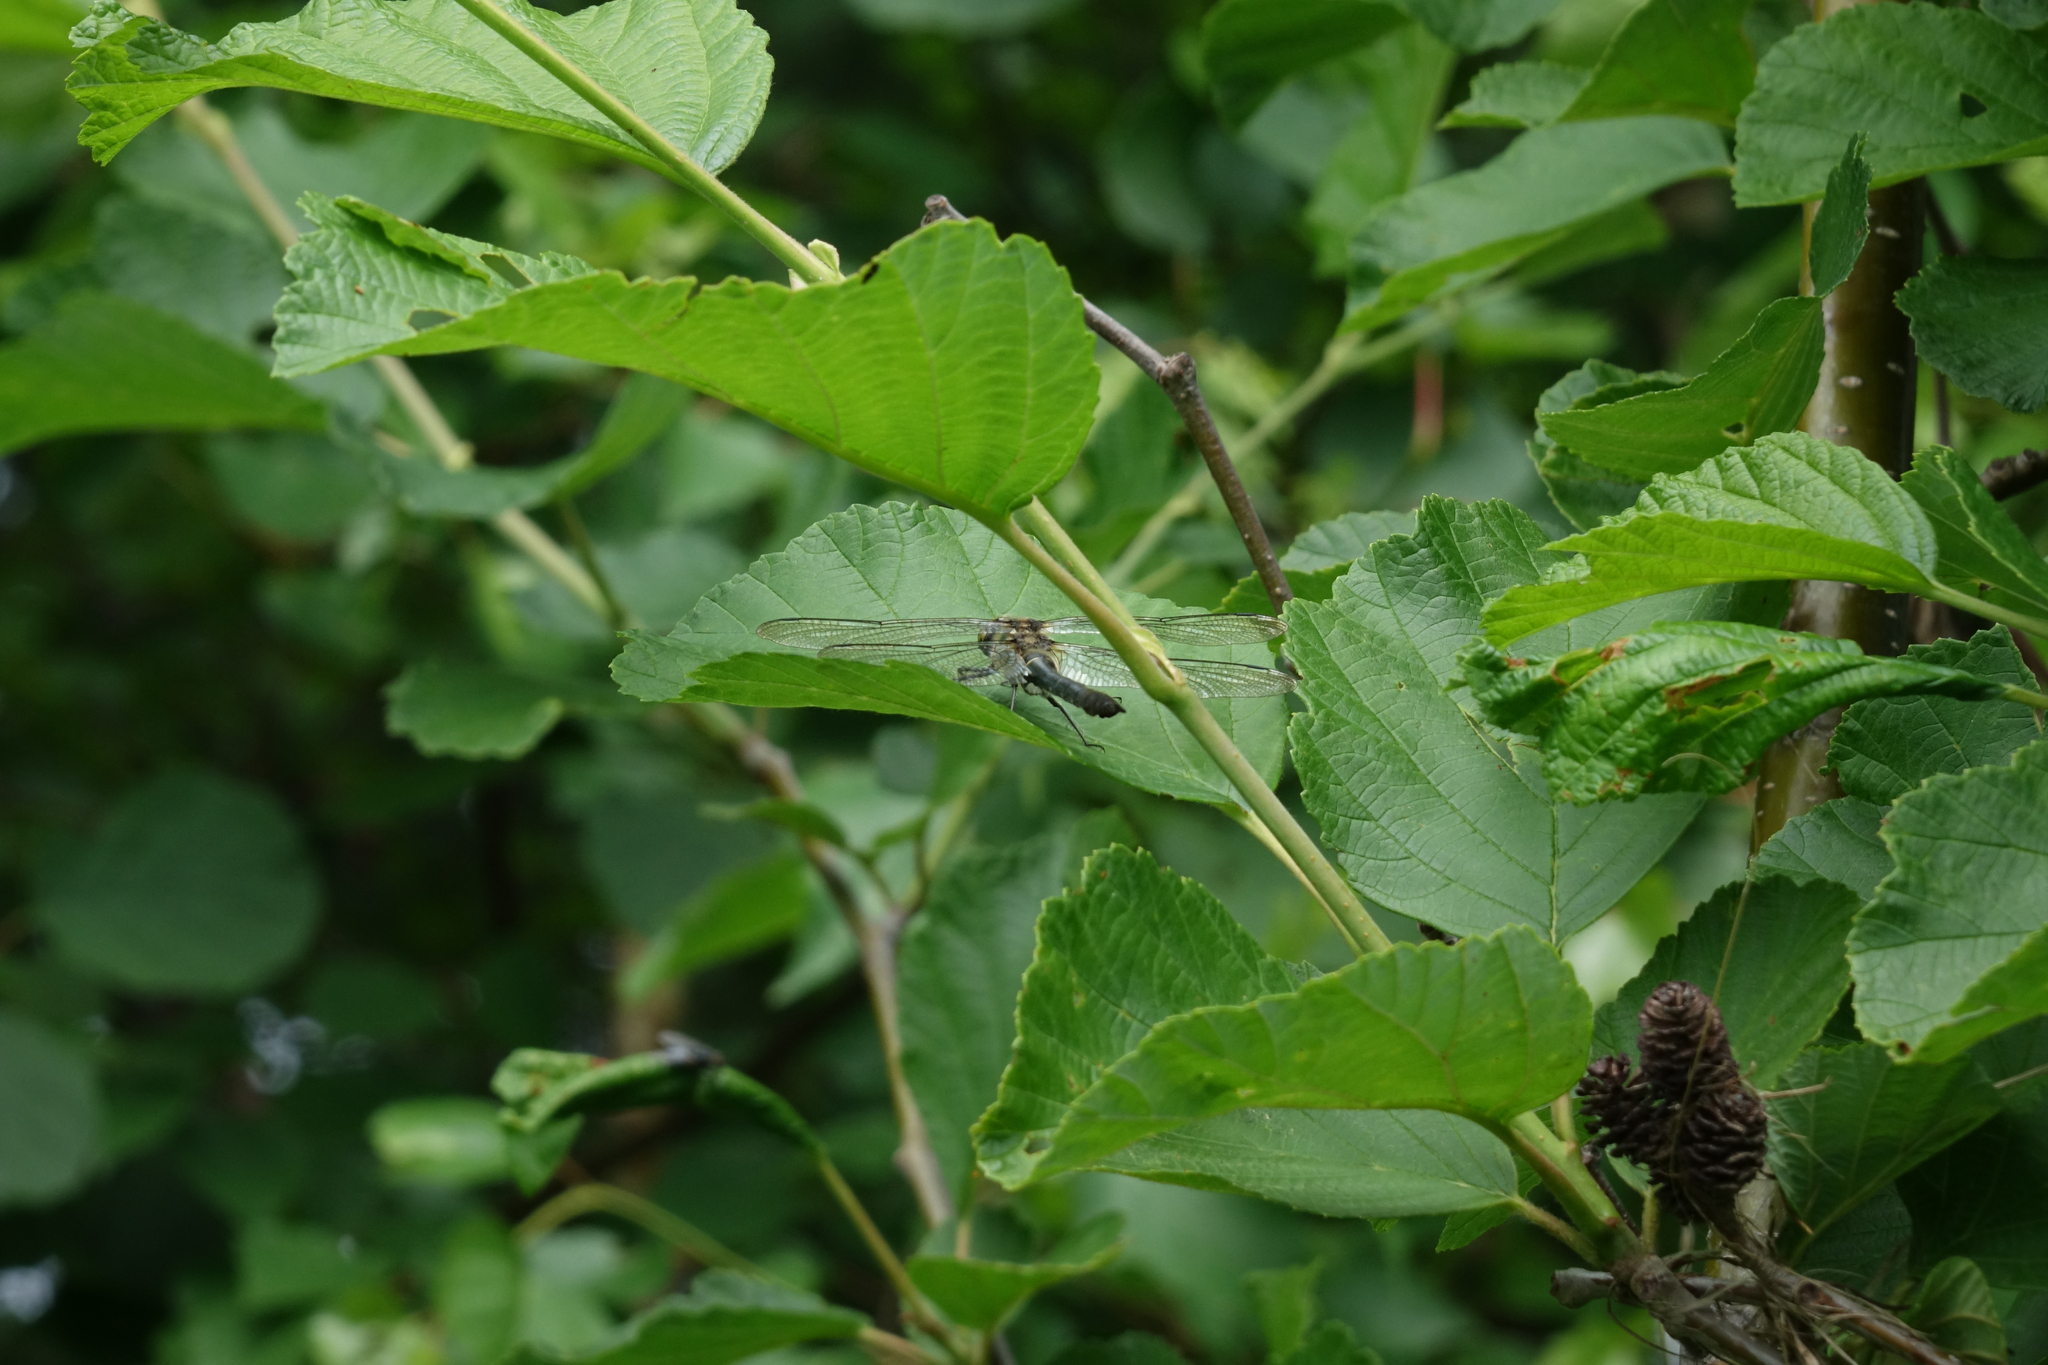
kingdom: Animalia
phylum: Arthropoda
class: Insecta
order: Odonata
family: Corduliidae
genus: Cordulia
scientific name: Cordulia aenea
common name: Downy emerald
